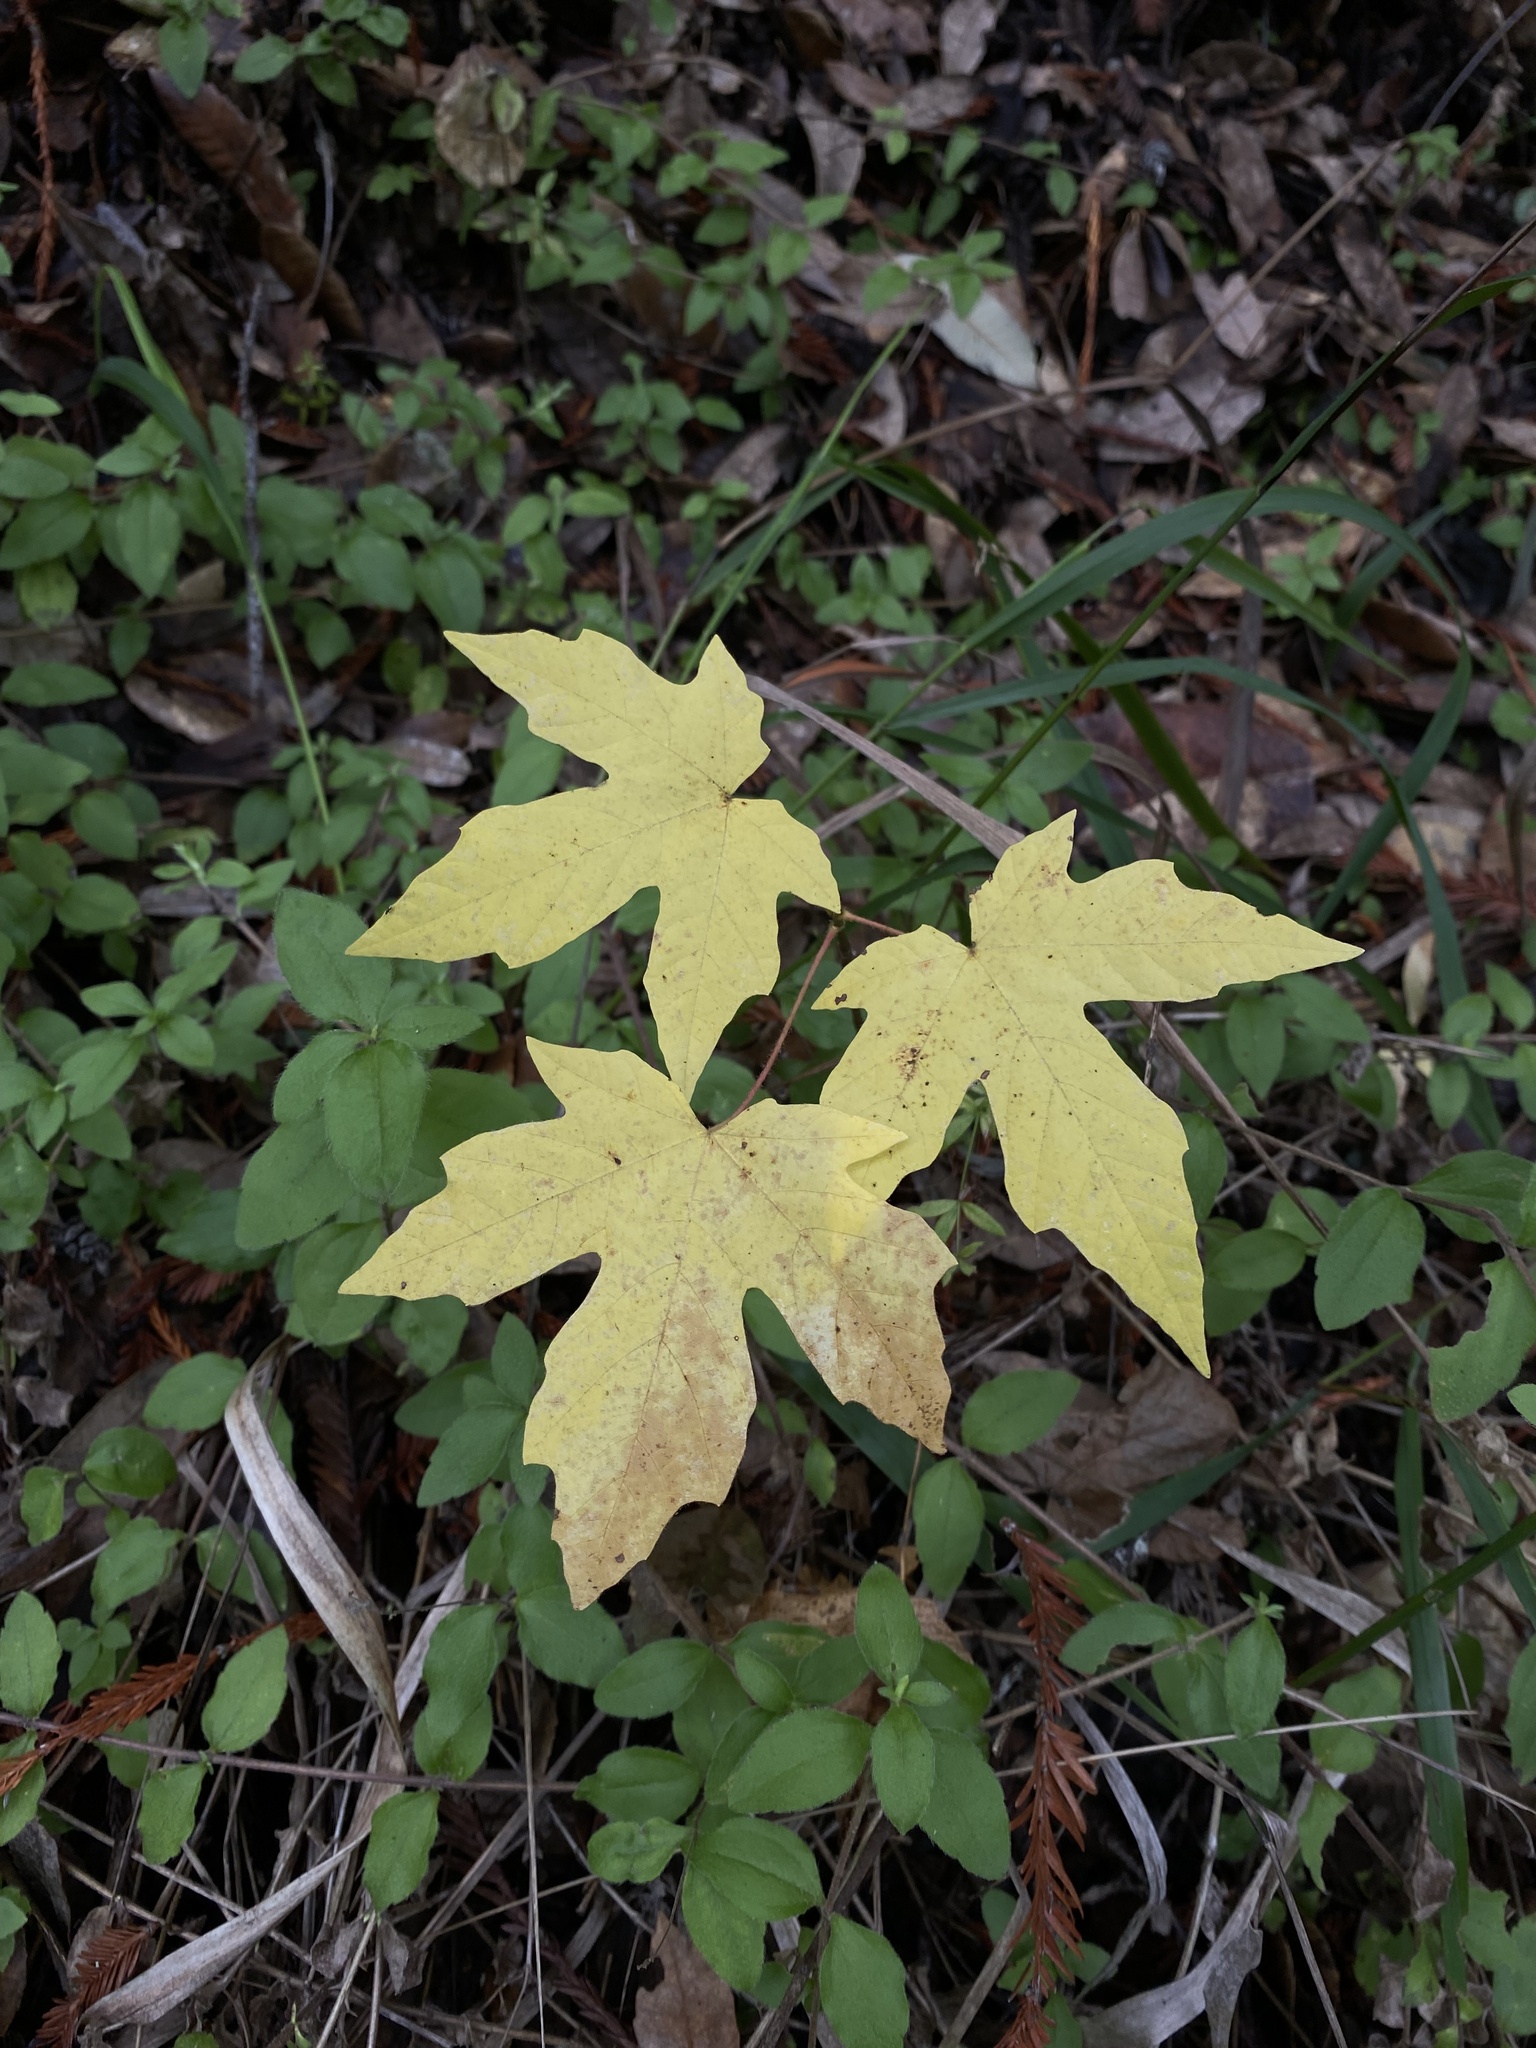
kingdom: Plantae
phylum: Tracheophyta
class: Magnoliopsida
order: Sapindales
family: Sapindaceae
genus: Acer
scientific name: Acer macrophyllum
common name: Oregon maple
